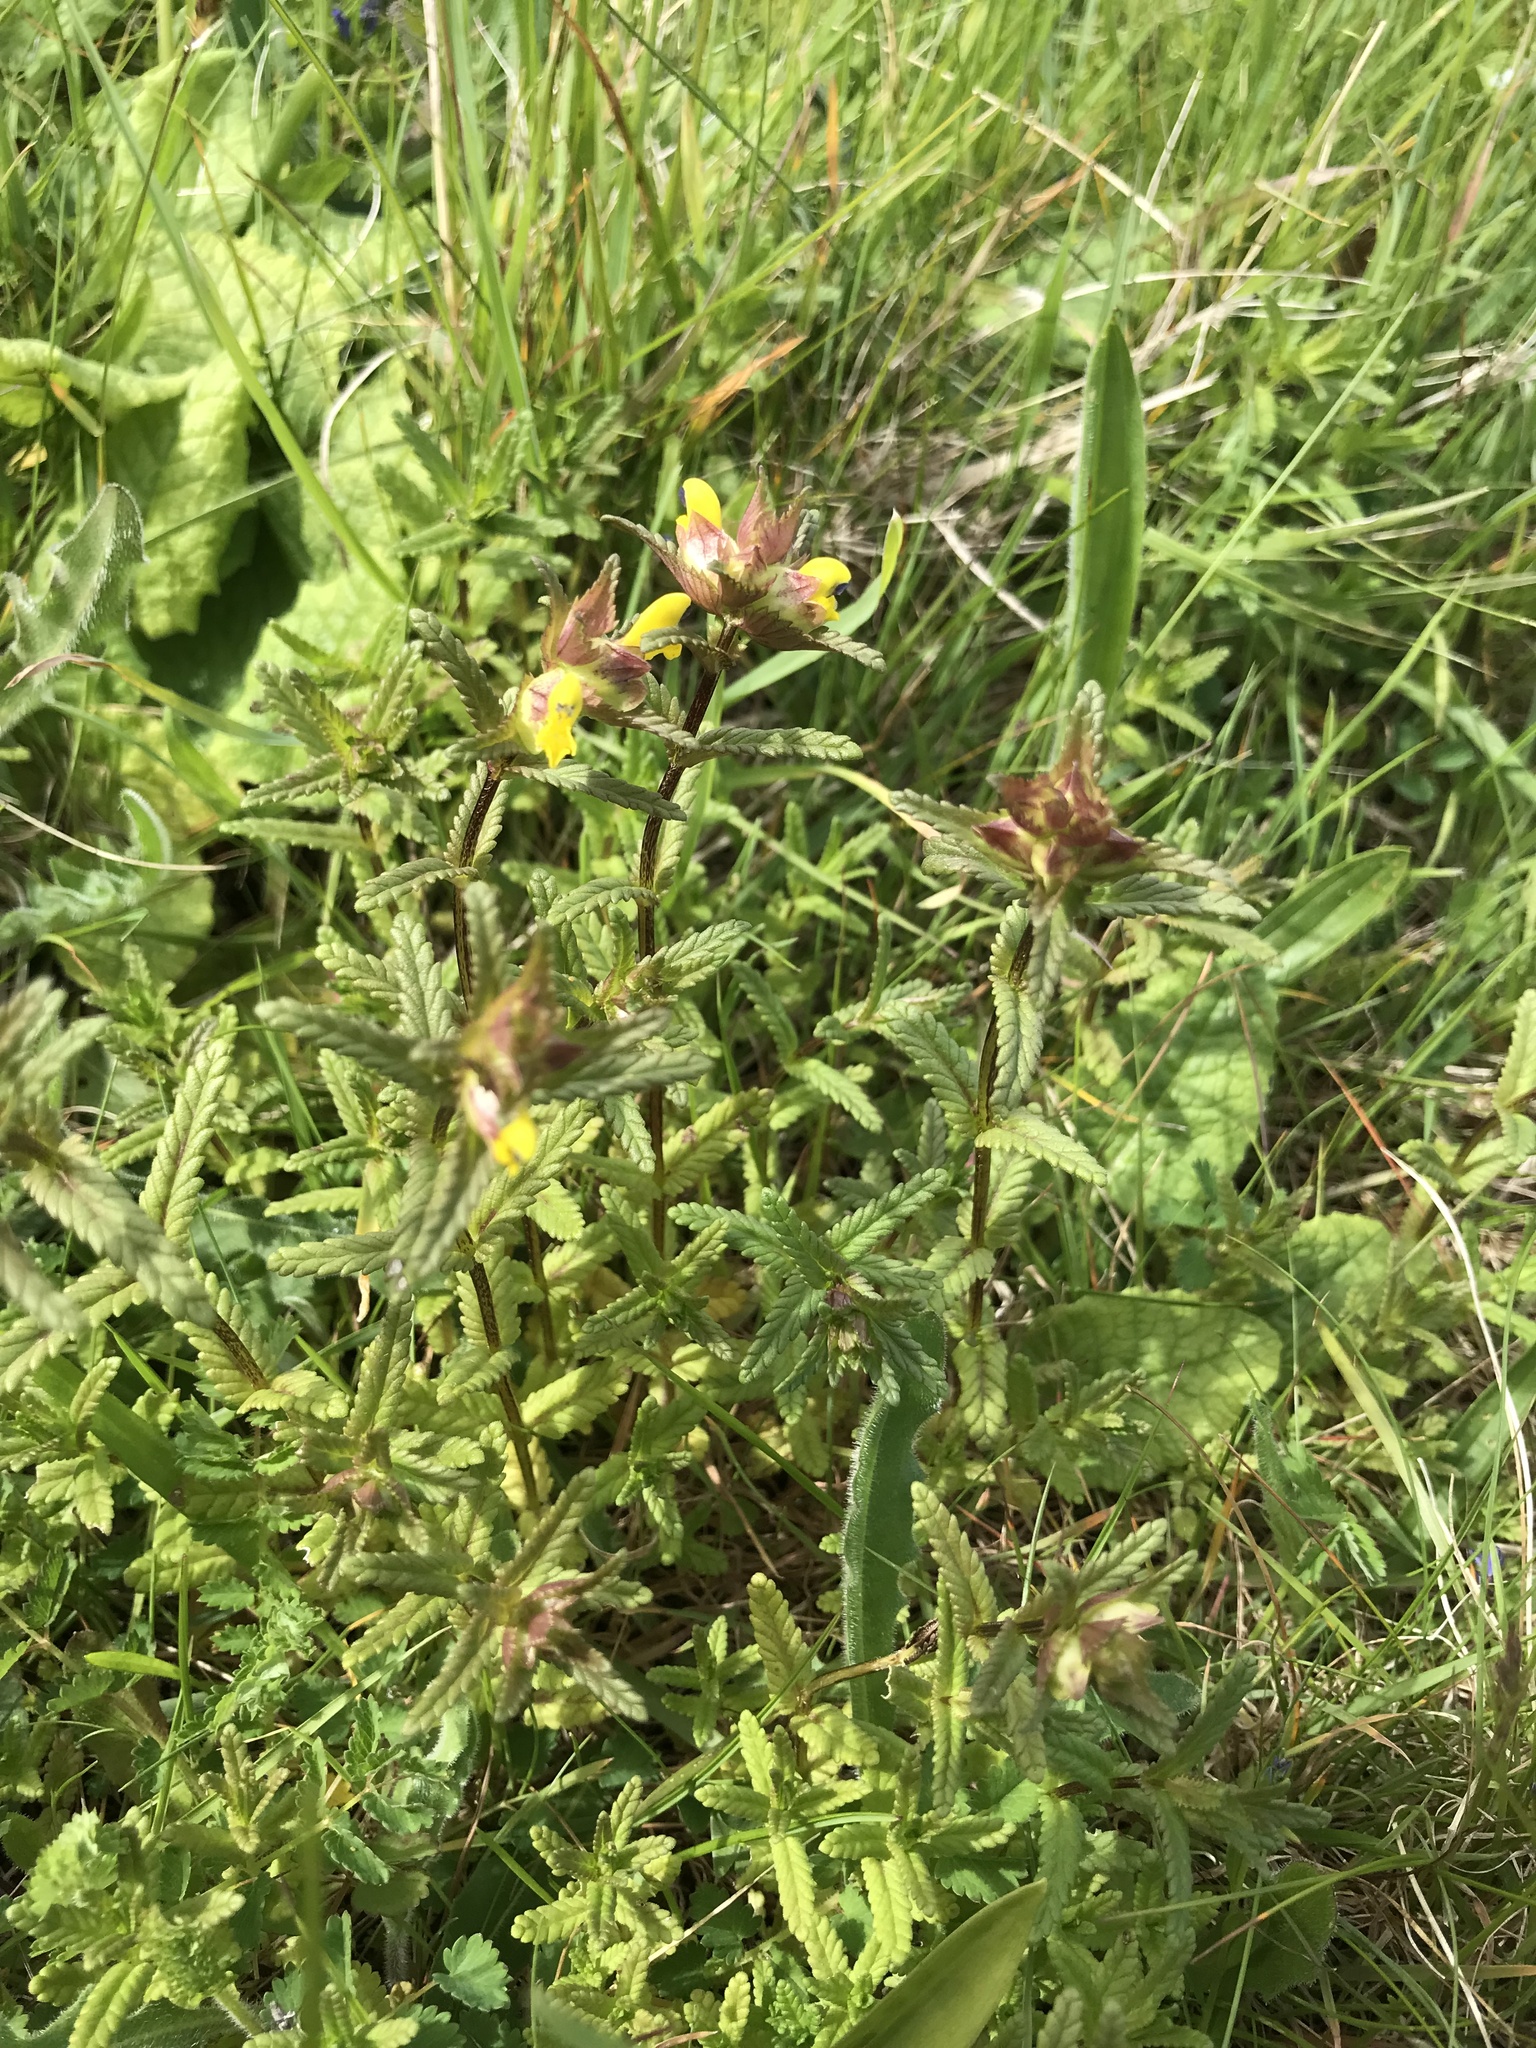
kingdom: Plantae
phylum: Tracheophyta
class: Magnoliopsida
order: Lamiales
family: Orobanchaceae
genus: Rhinanthus
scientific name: Rhinanthus minor
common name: Yellow-rattle
